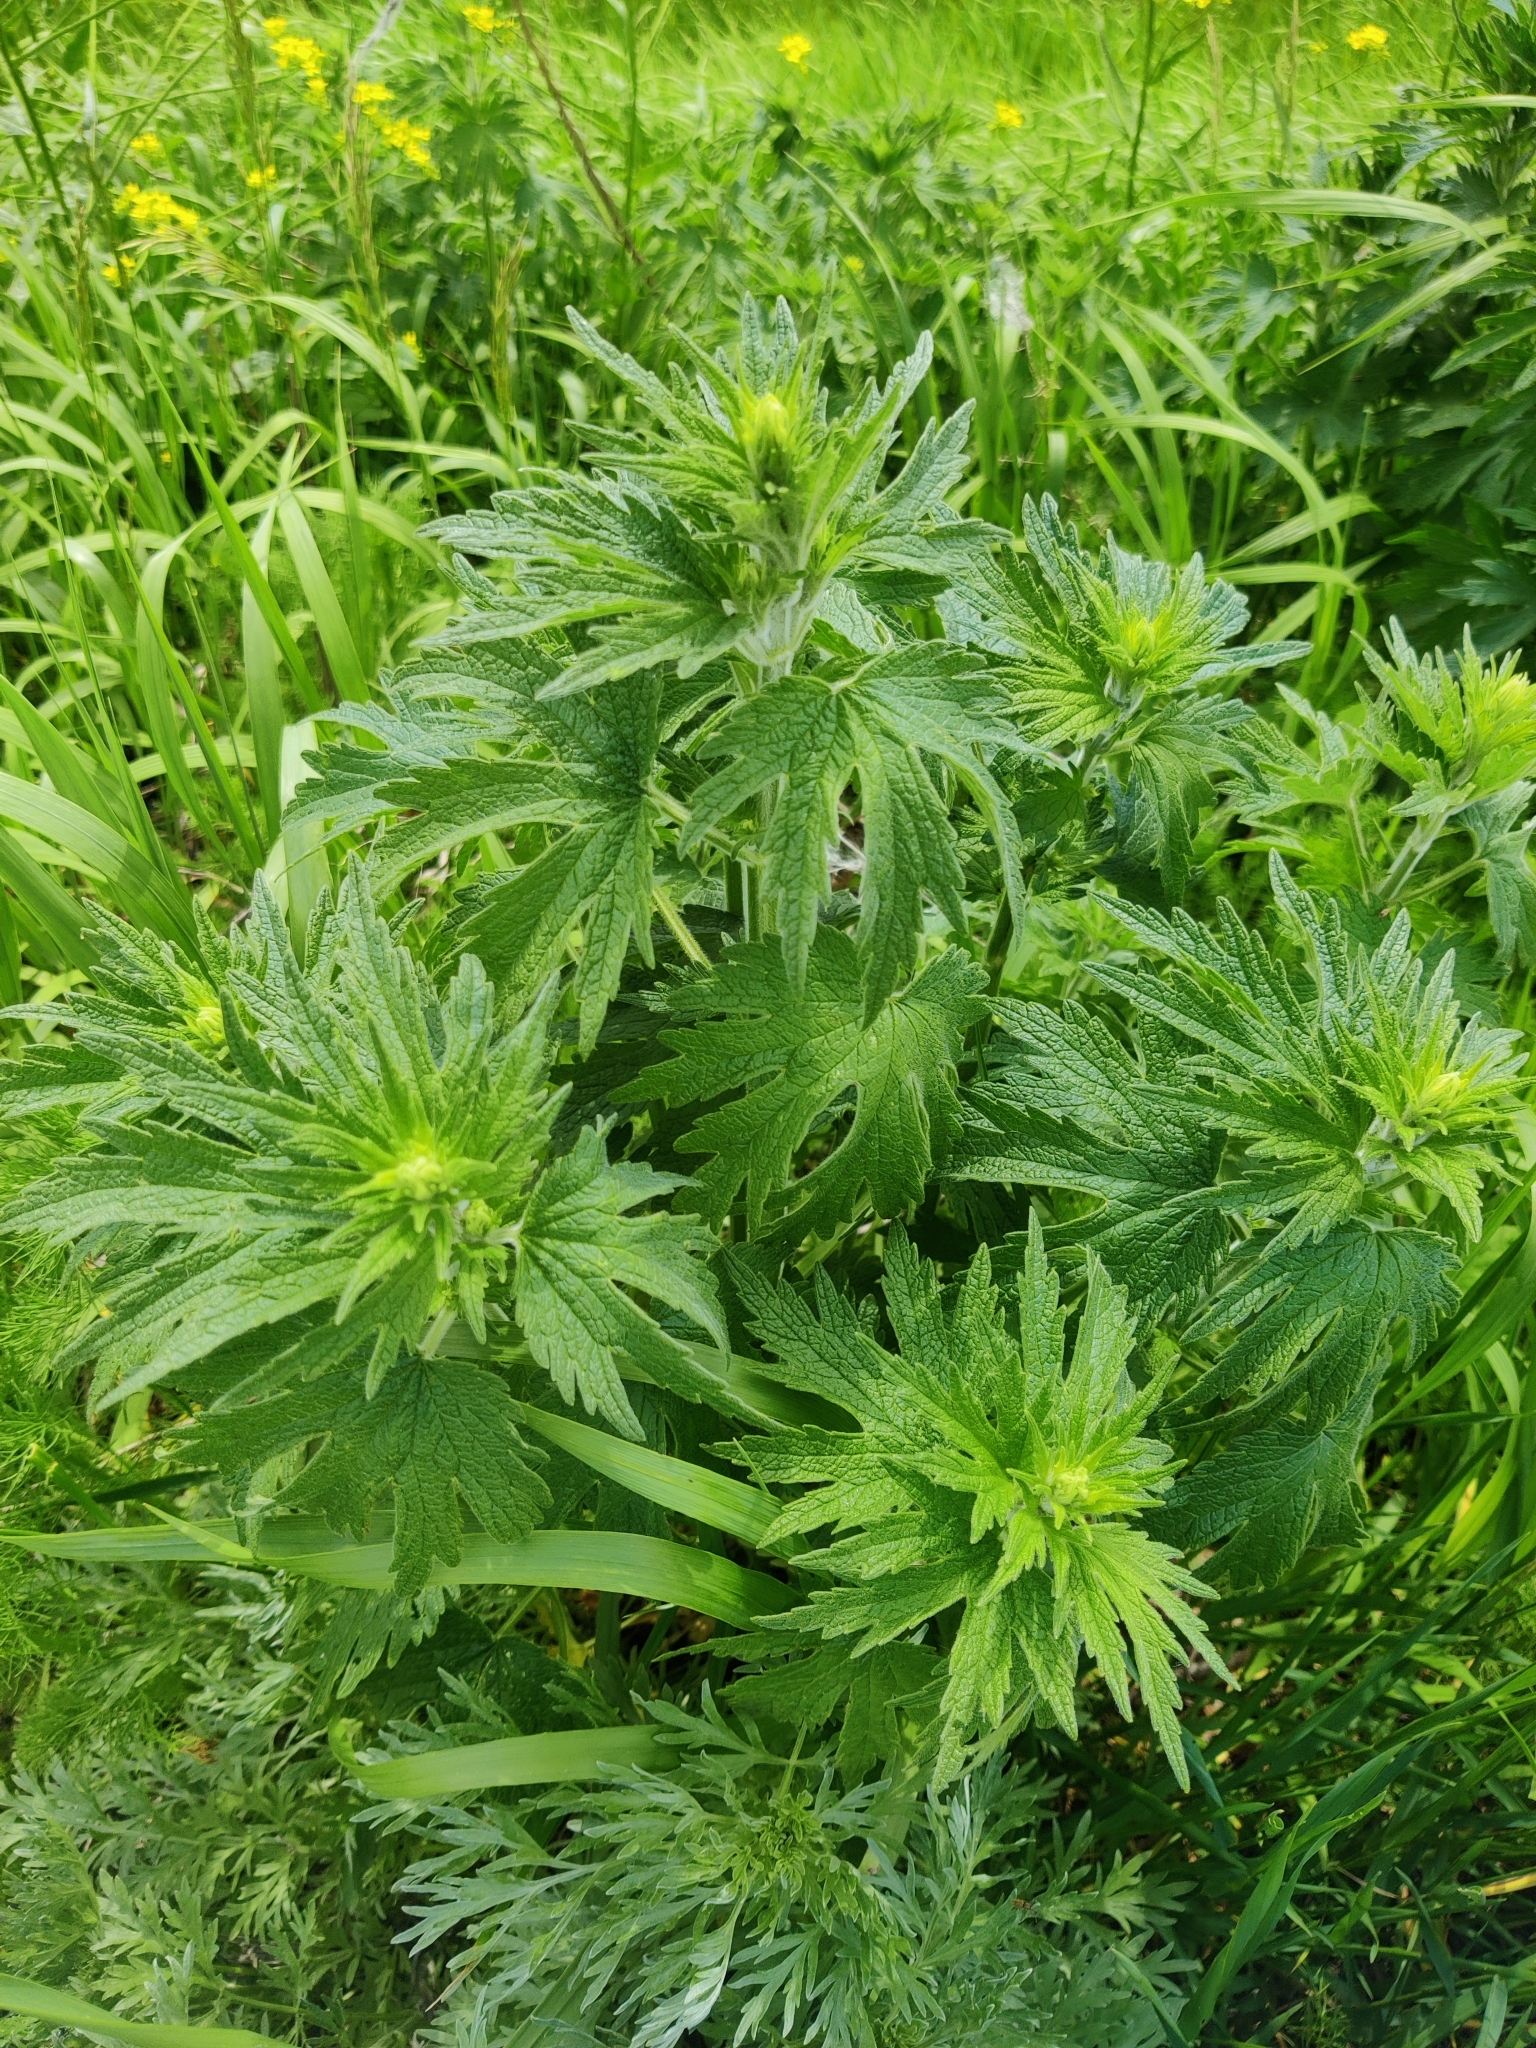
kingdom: Plantae
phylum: Tracheophyta
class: Magnoliopsida
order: Lamiales
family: Lamiaceae
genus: Leonurus
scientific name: Leonurus quinquelobatus
